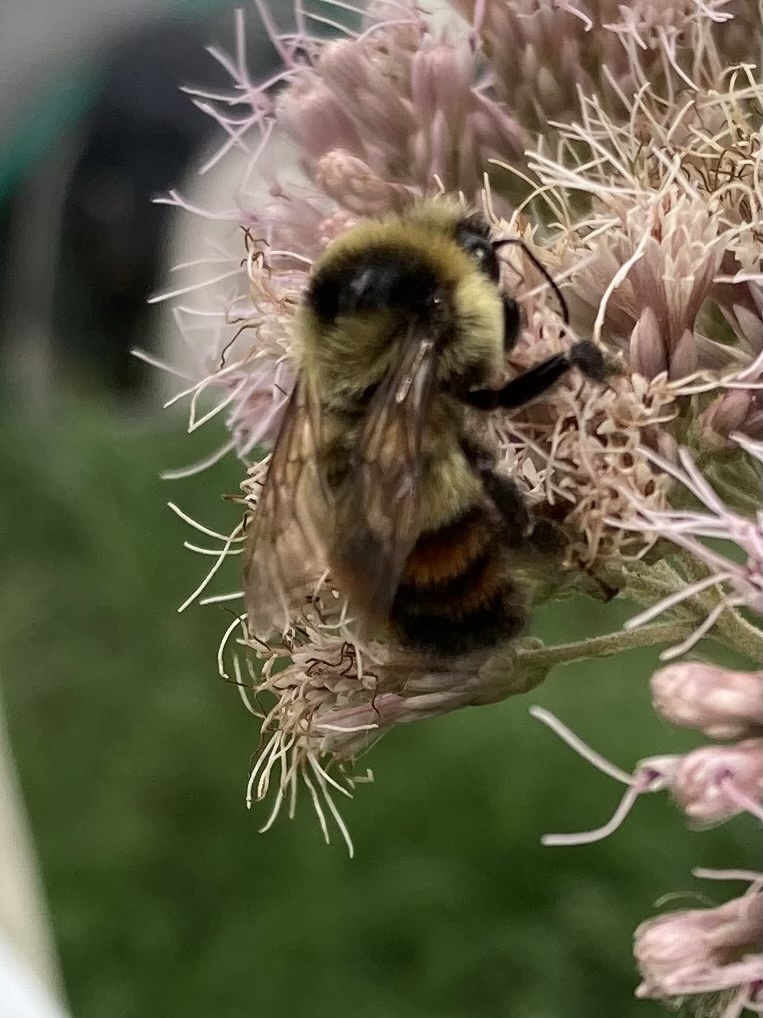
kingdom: Animalia
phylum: Arthropoda
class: Insecta
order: Hymenoptera
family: Apidae
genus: Bombus
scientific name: Bombus rufocinctus
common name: Red-belted bumble bee
